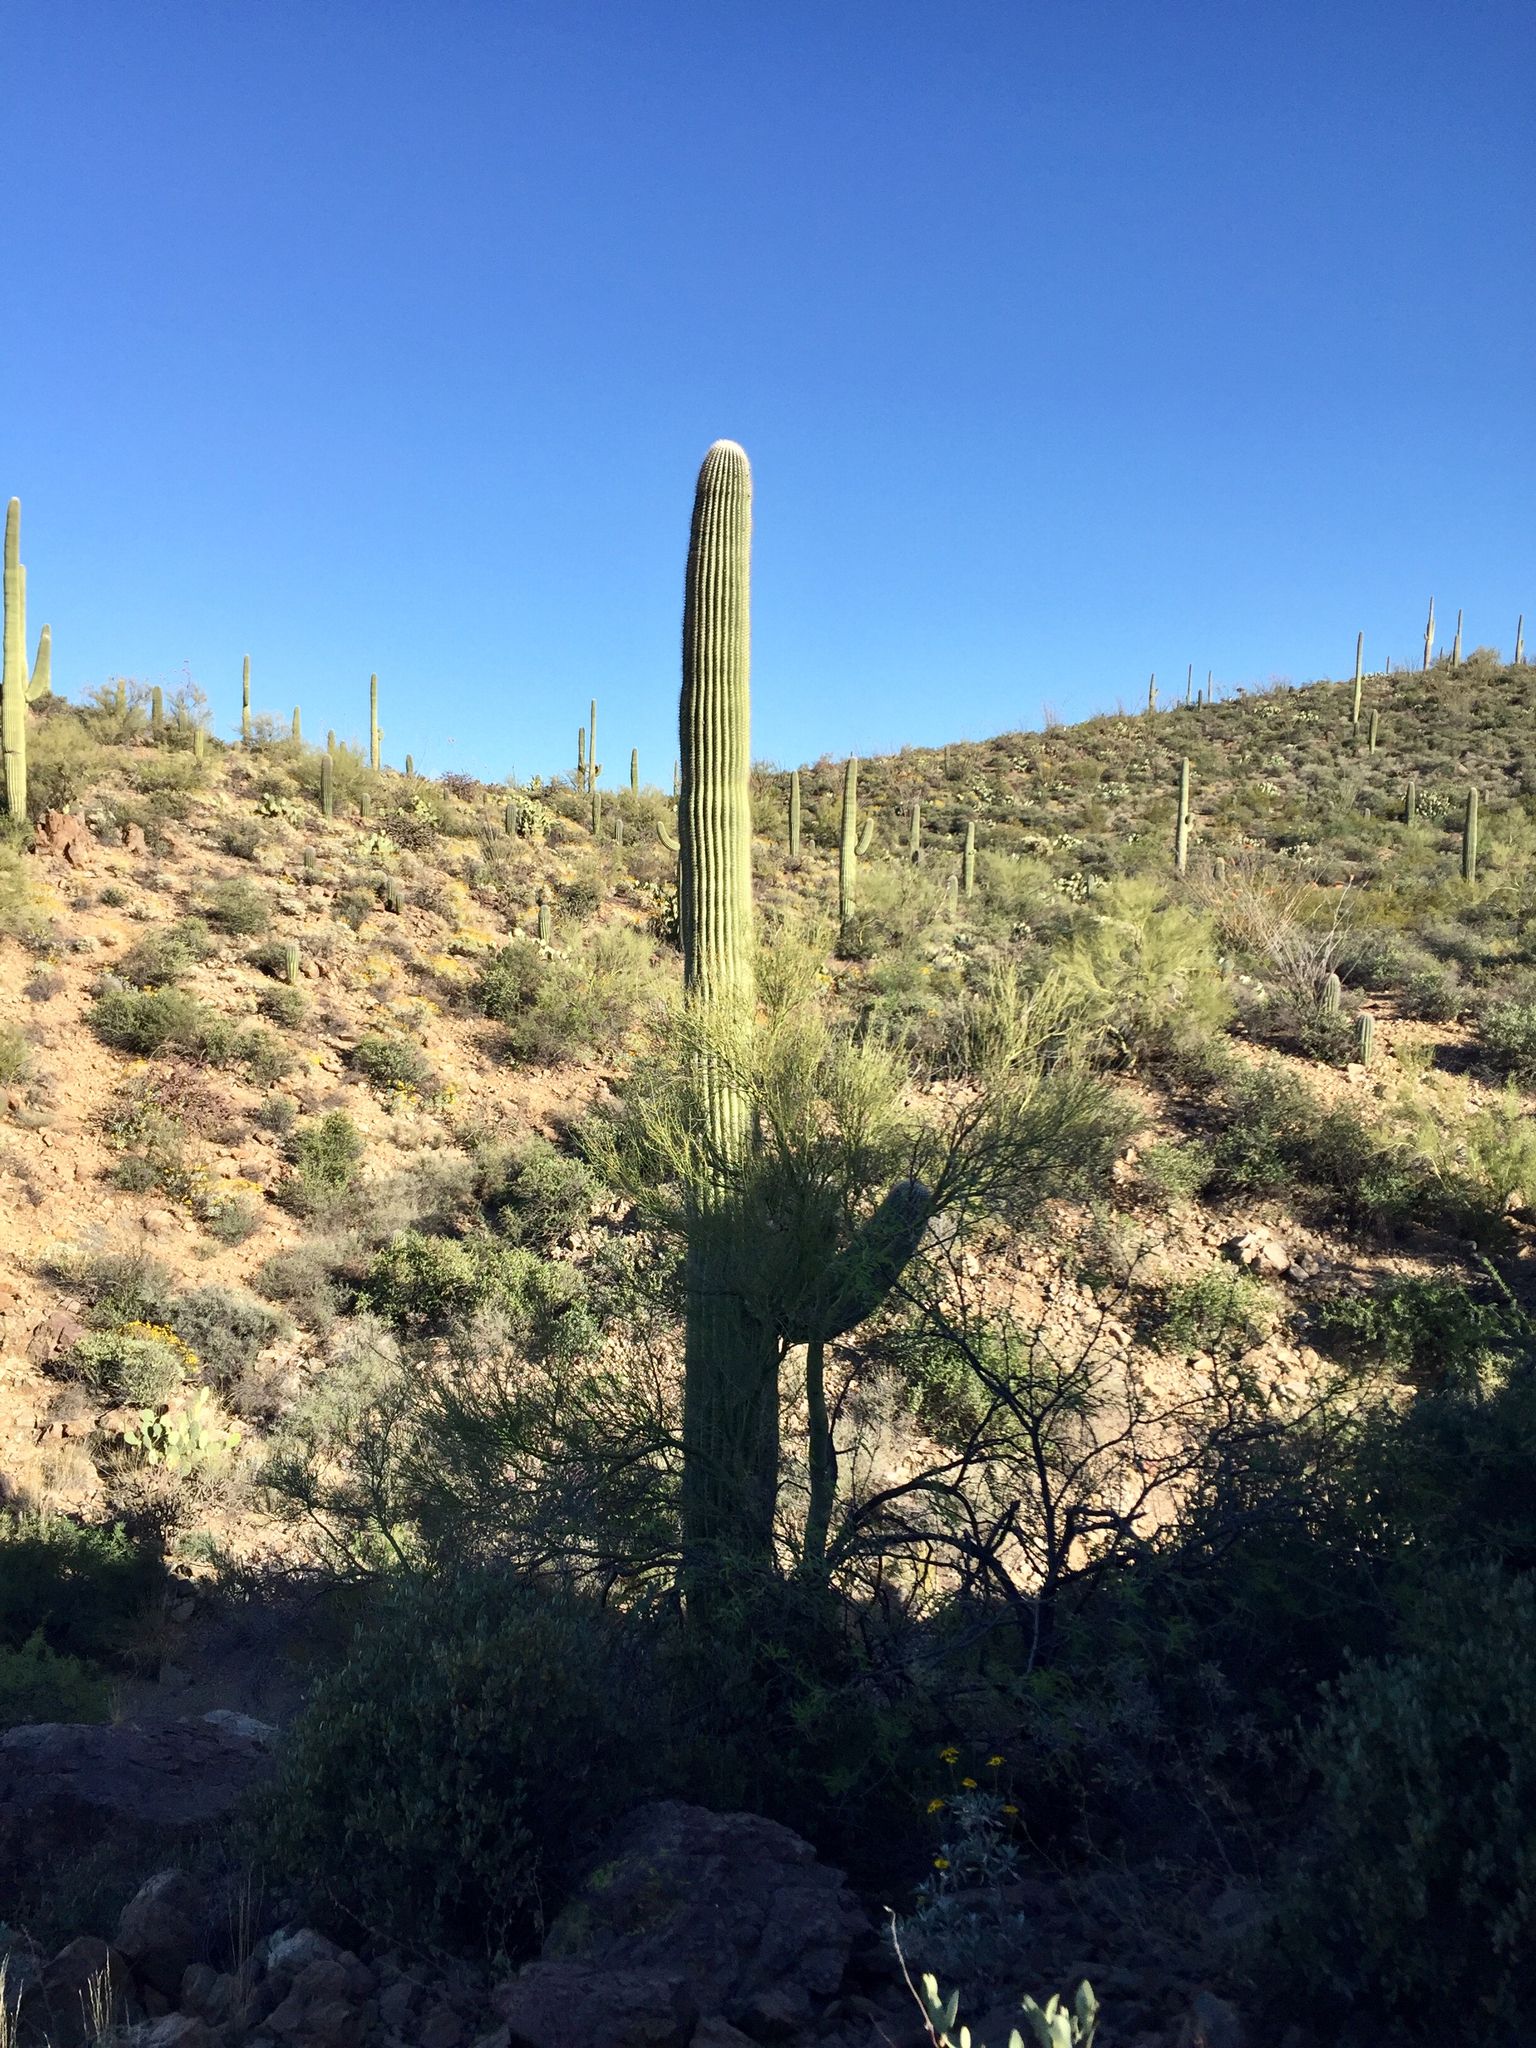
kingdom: Plantae
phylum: Tracheophyta
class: Magnoliopsida
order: Caryophyllales
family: Cactaceae
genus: Carnegiea
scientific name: Carnegiea gigantea
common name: Saguaro
